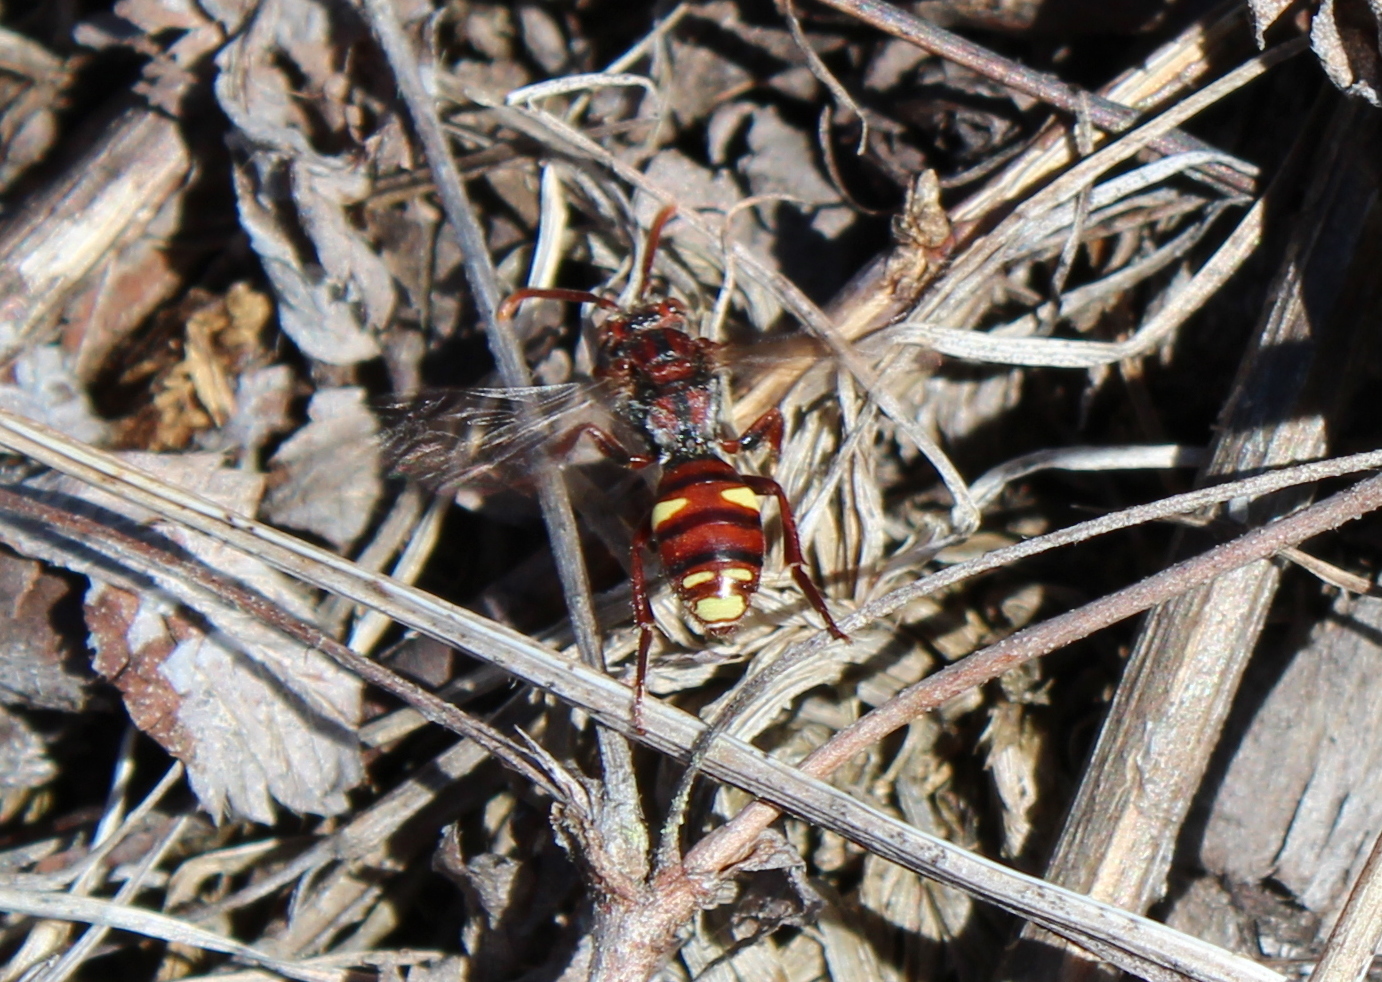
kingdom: Animalia
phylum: Arthropoda
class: Insecta
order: Hymenoptera
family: Apidae
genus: Nomada
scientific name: Nomada gracilis
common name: Slender cuckoo nomad bee
